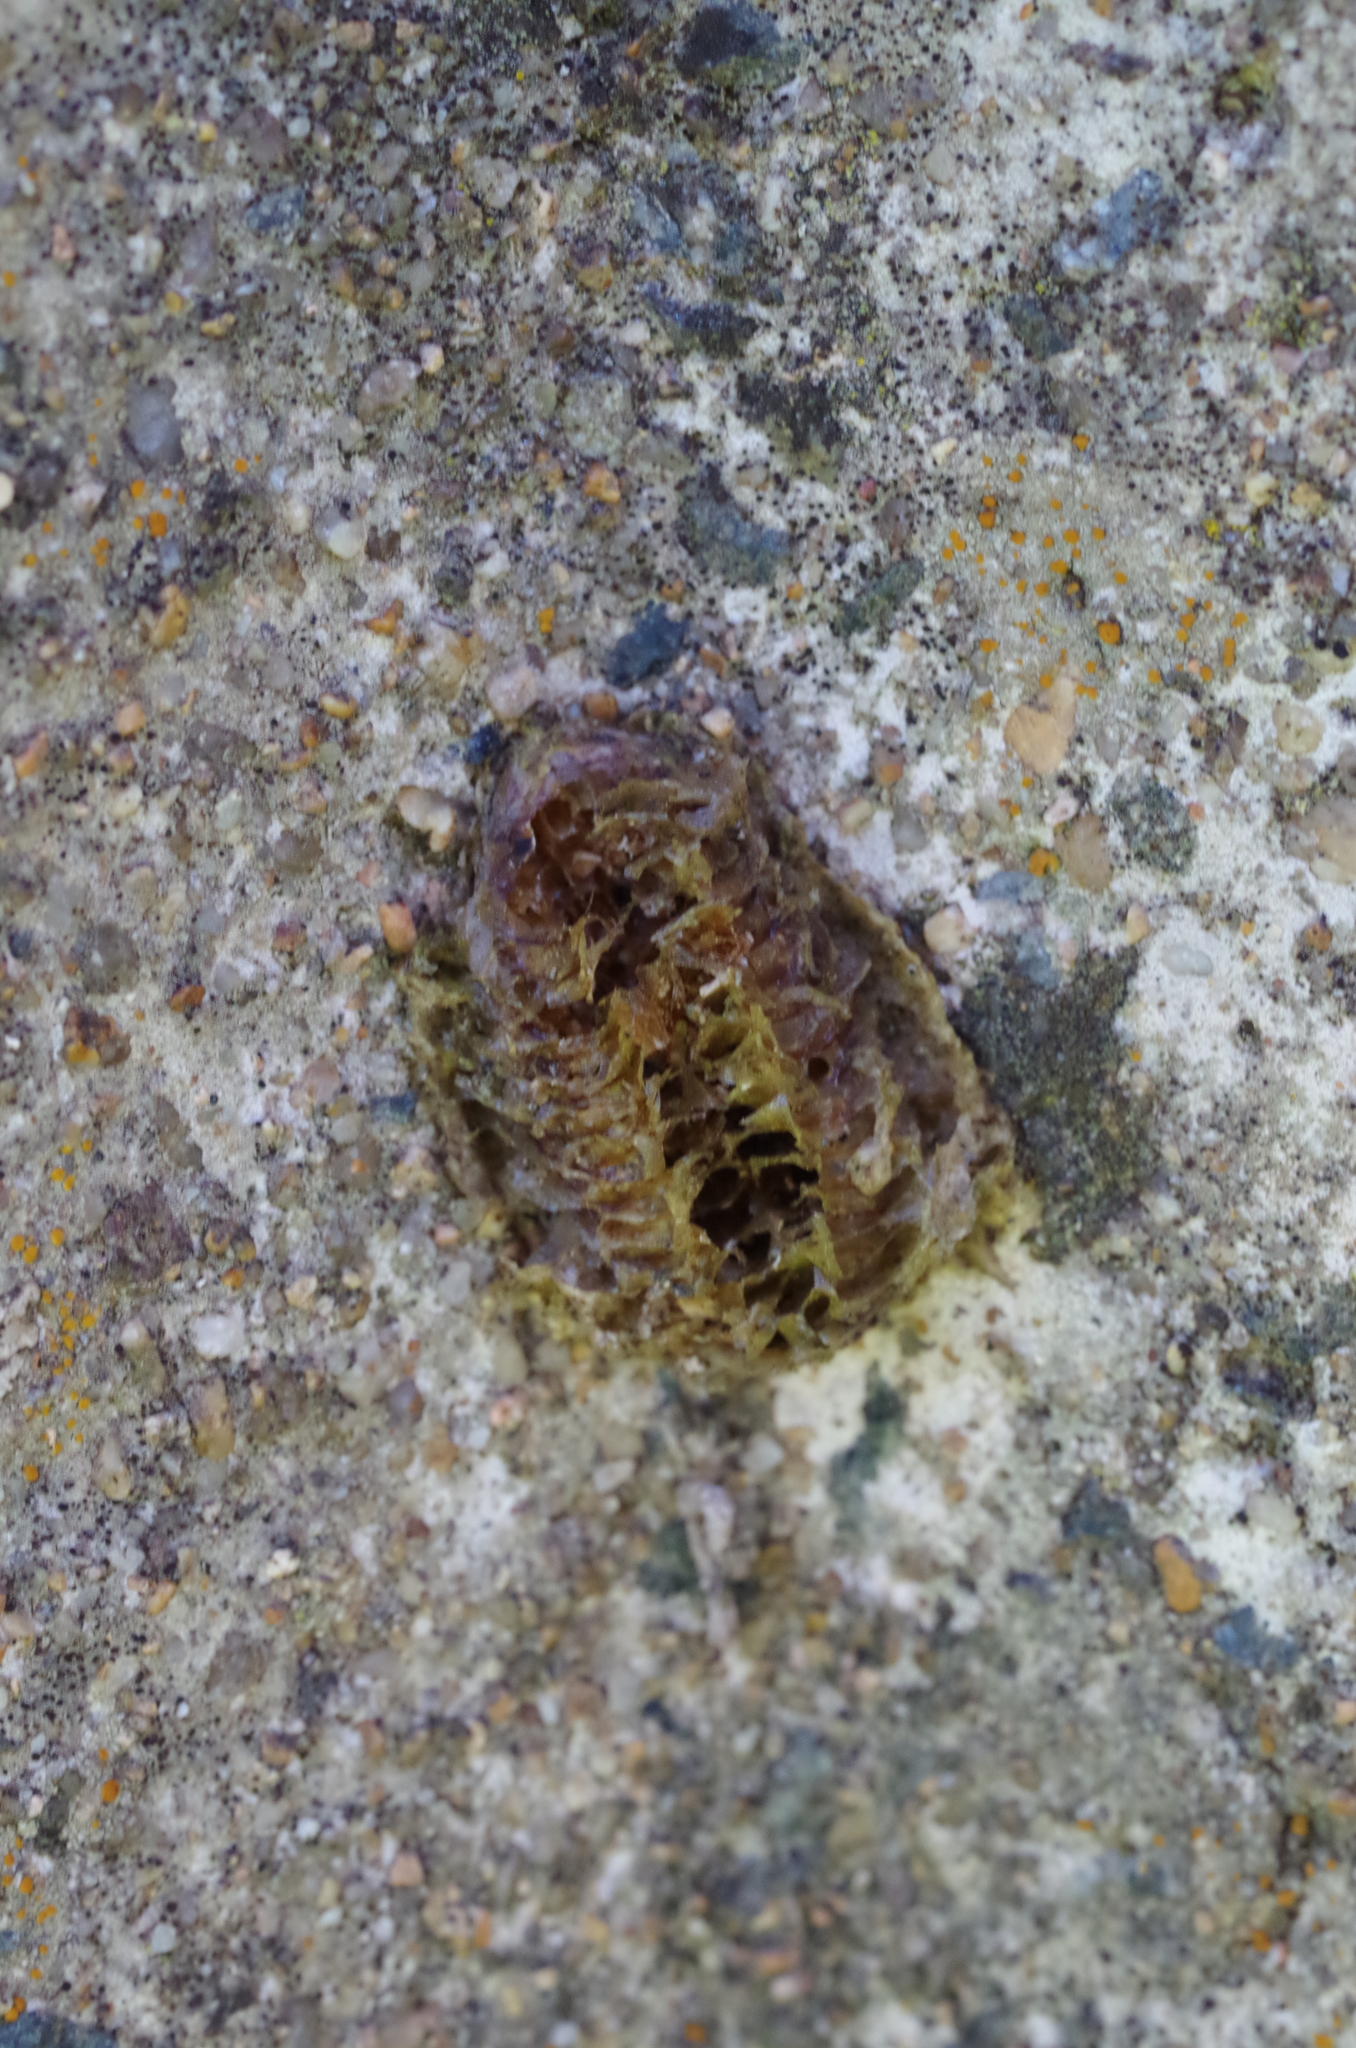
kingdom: Animalia
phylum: Arthropoda
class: Insecta
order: Mantodea
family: Mantidae
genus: Mantis
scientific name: Mantis religiosa
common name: Praying mantis
